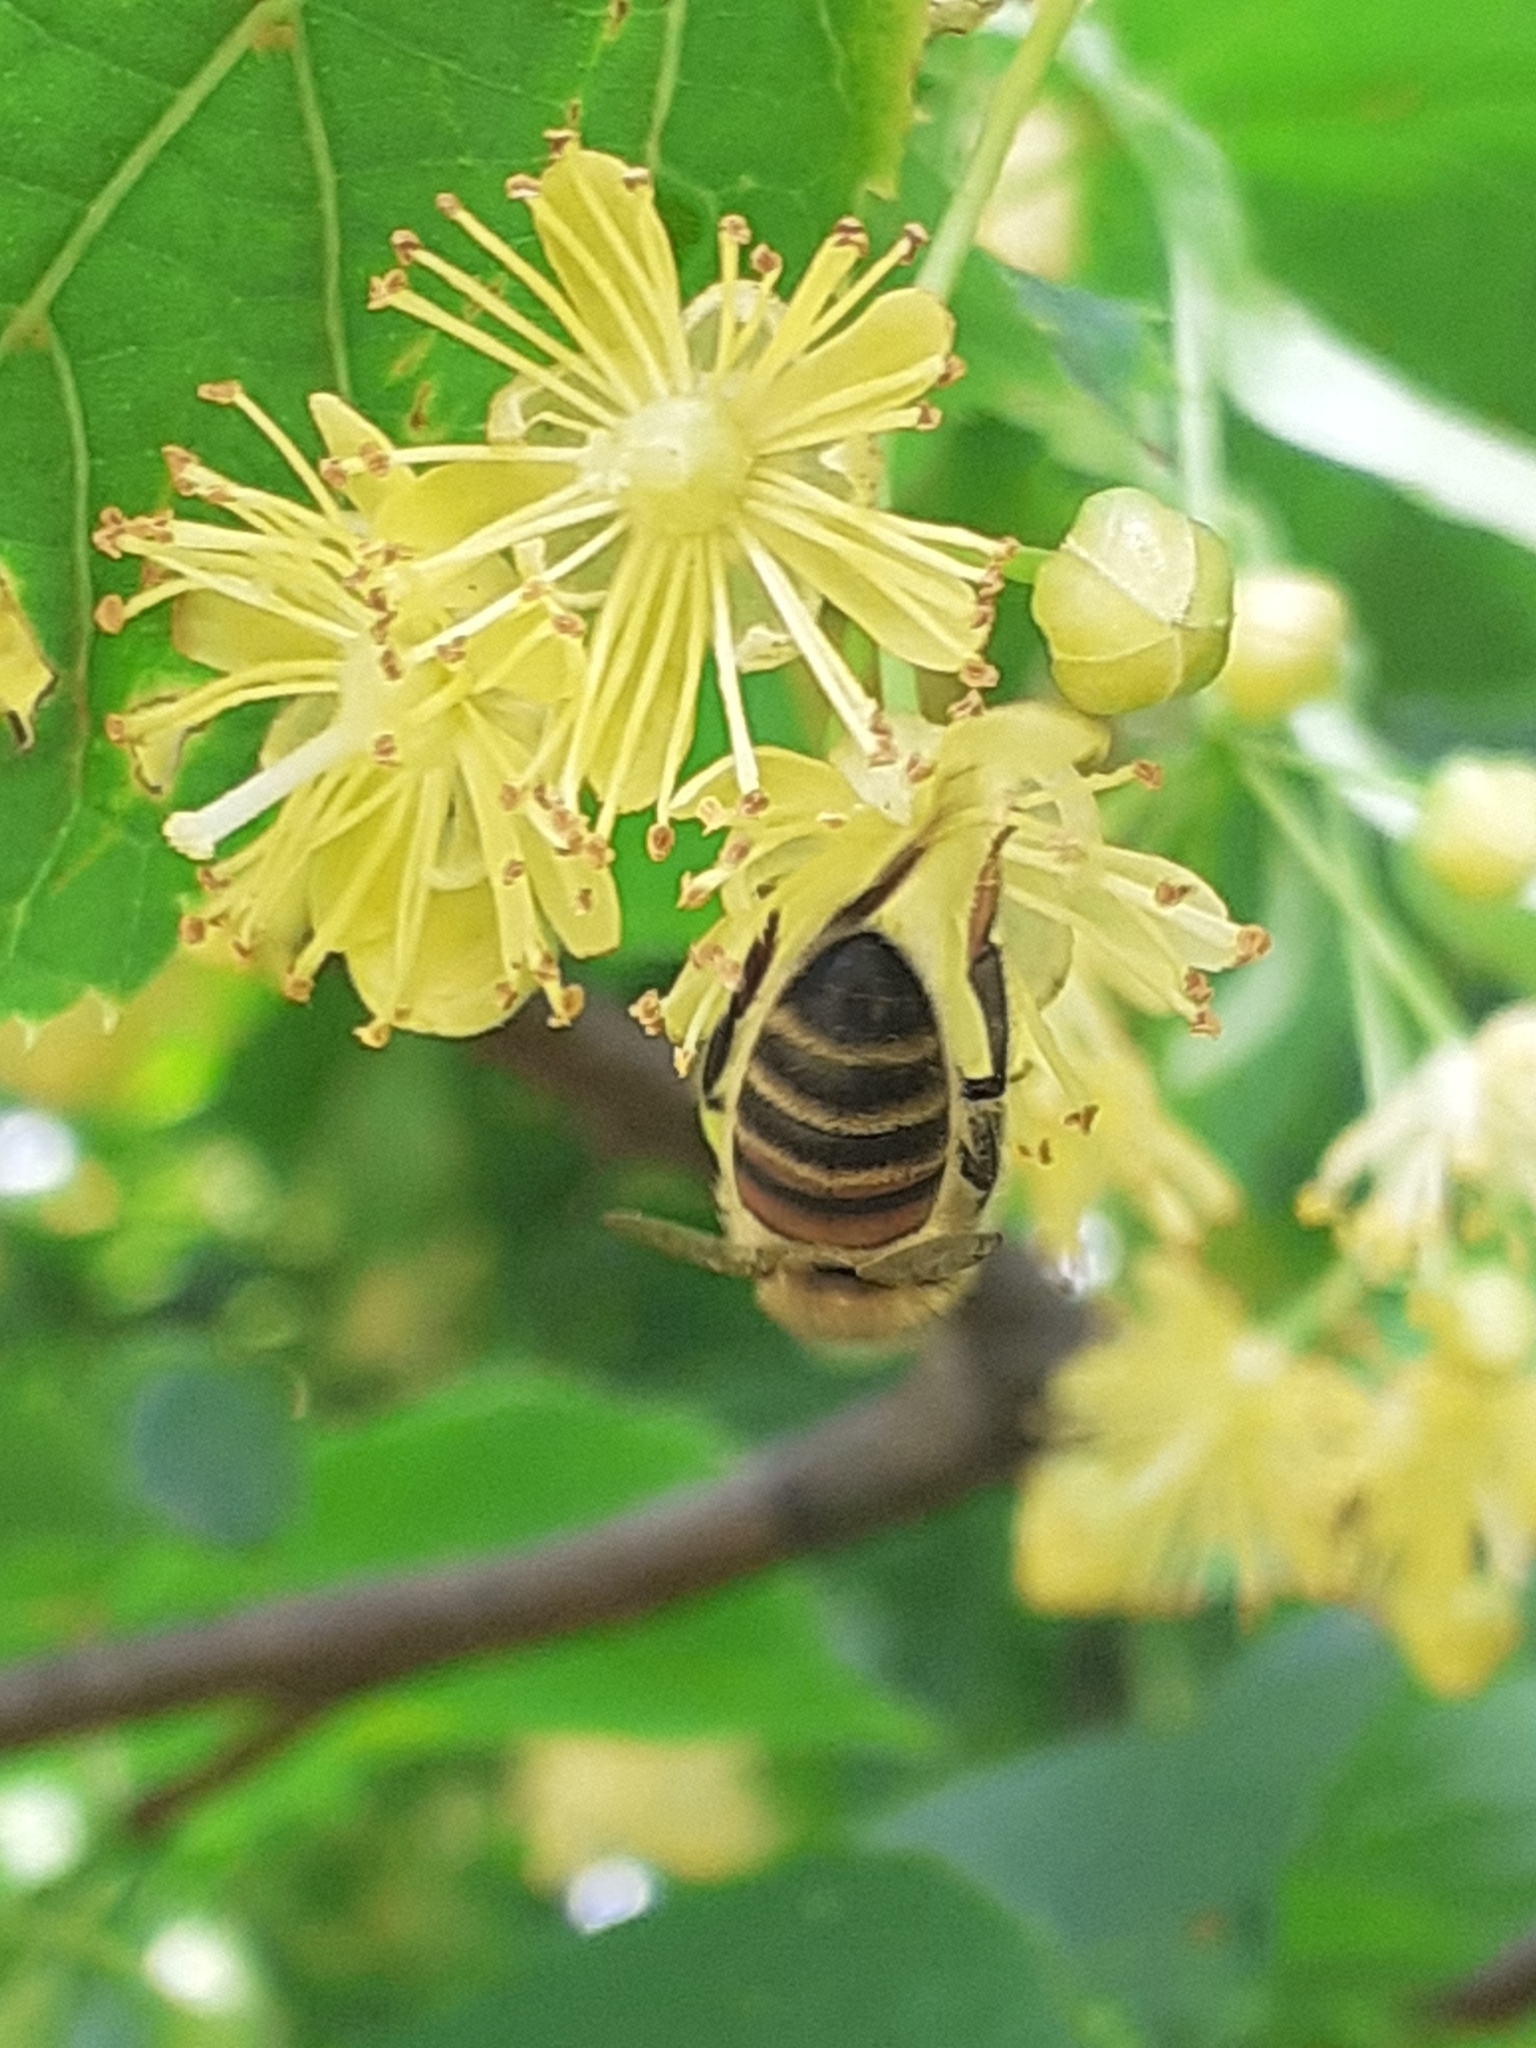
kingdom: Animalia
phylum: Arthropoda
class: Insecta
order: Hymenoptera
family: Apidae
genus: Apis
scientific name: Apis mellifera
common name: Honey bee
